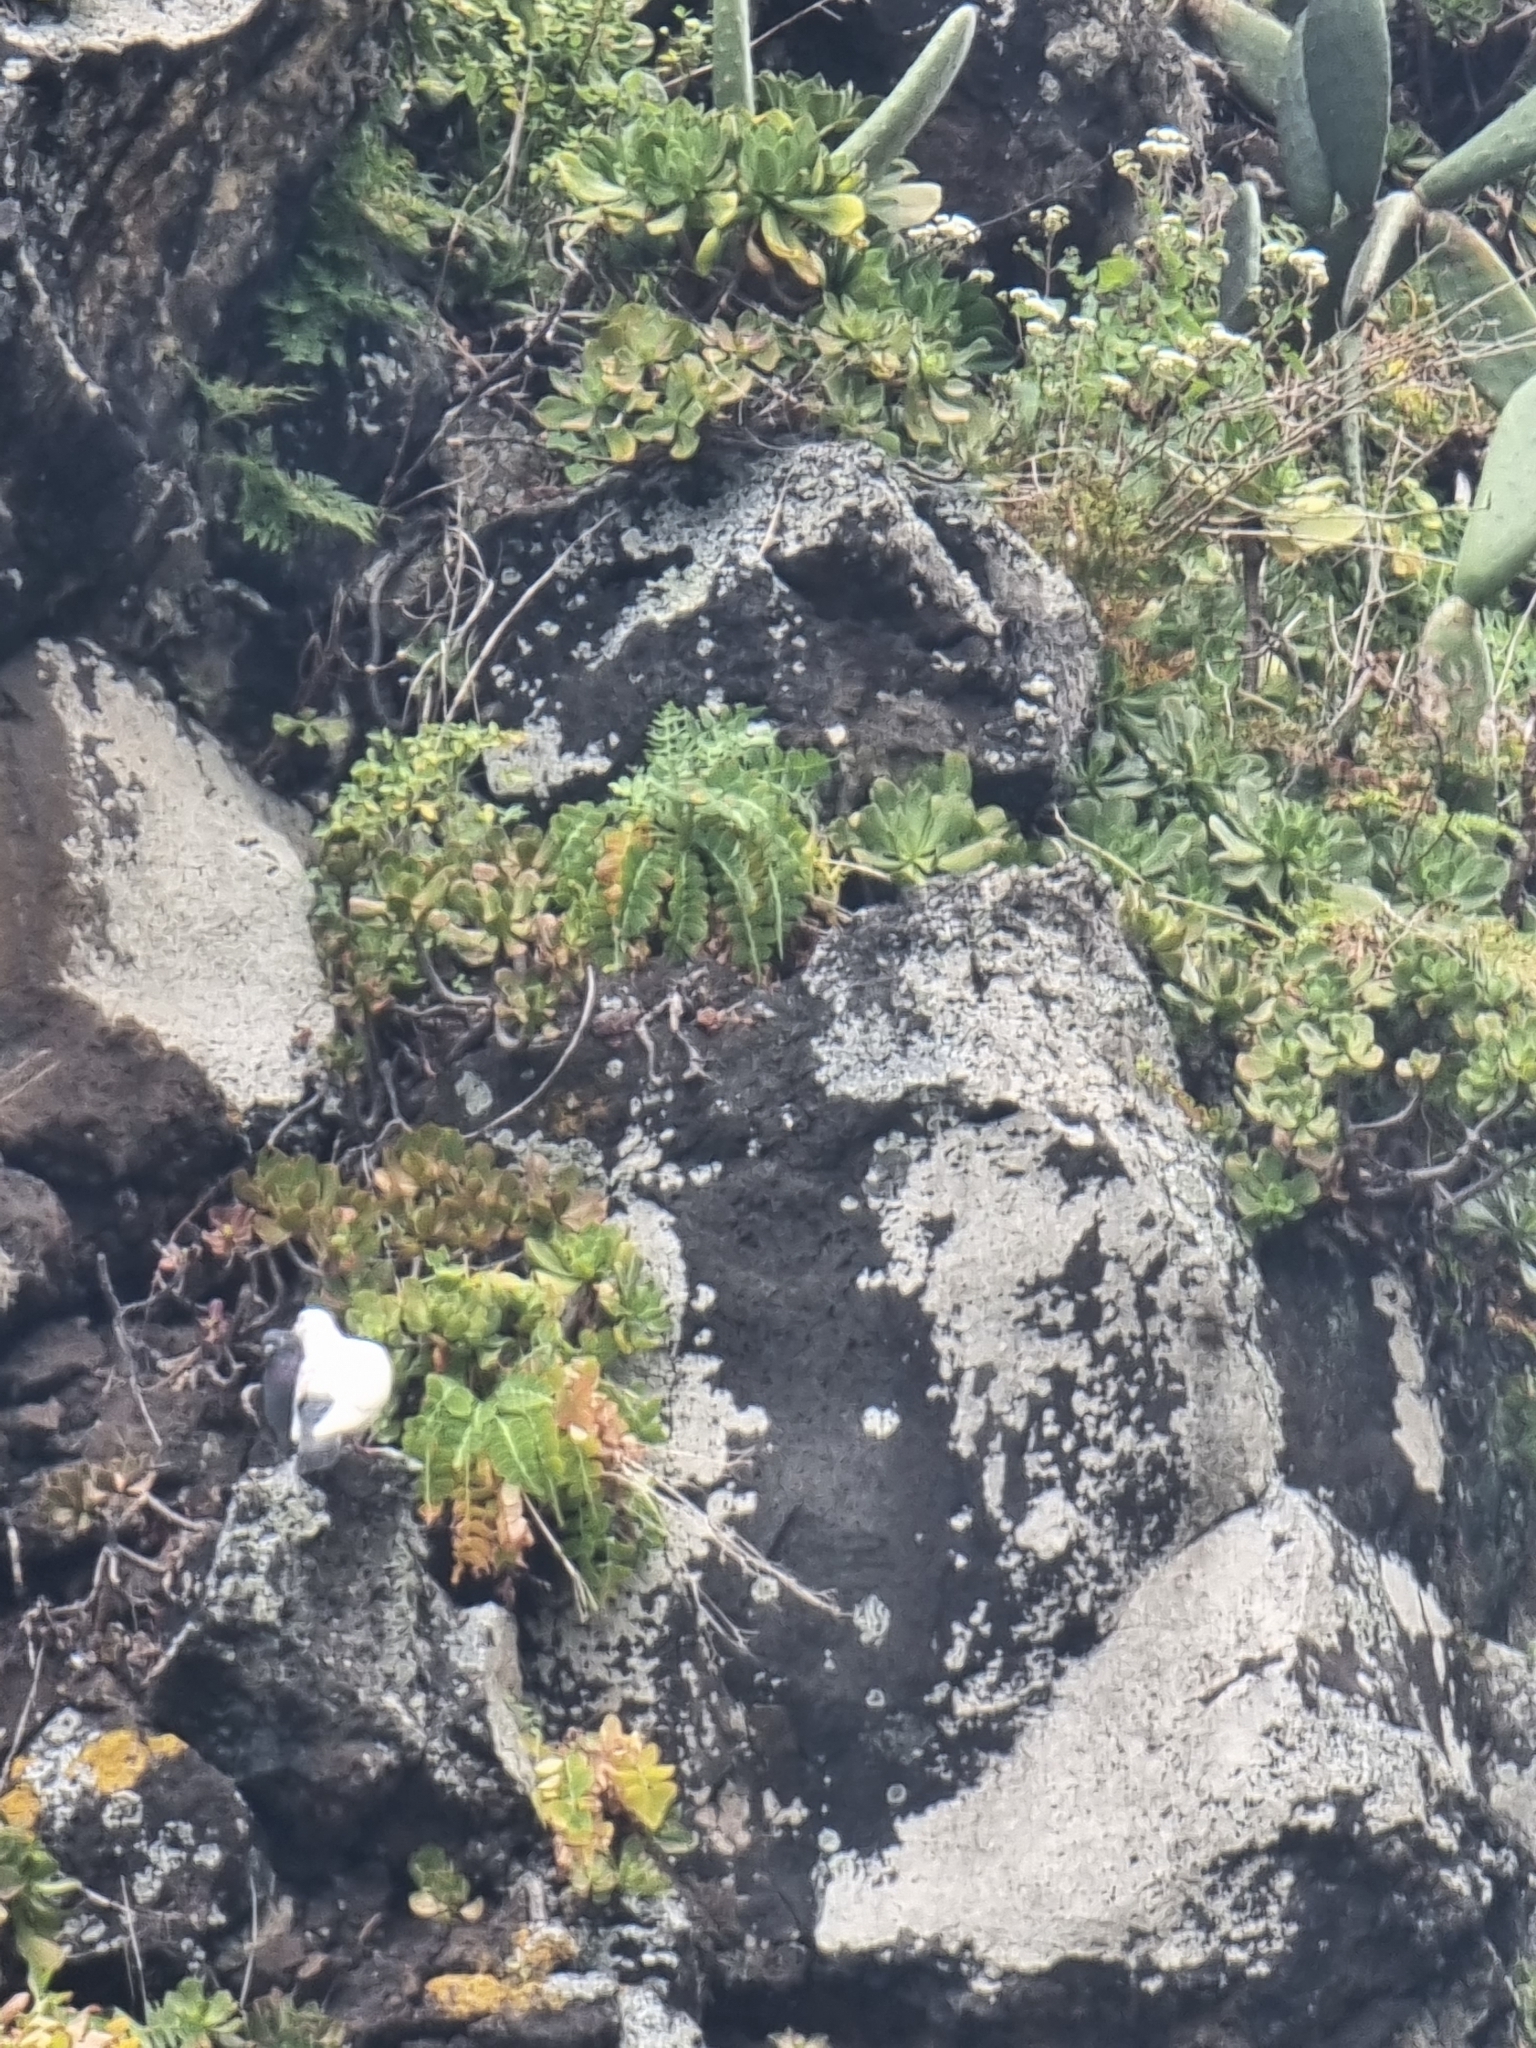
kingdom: Plantae
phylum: Tracheophyta
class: Magnoliopsida
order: Asterales
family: Asteraceae
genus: Sonchus
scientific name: Sonchus latifolius
